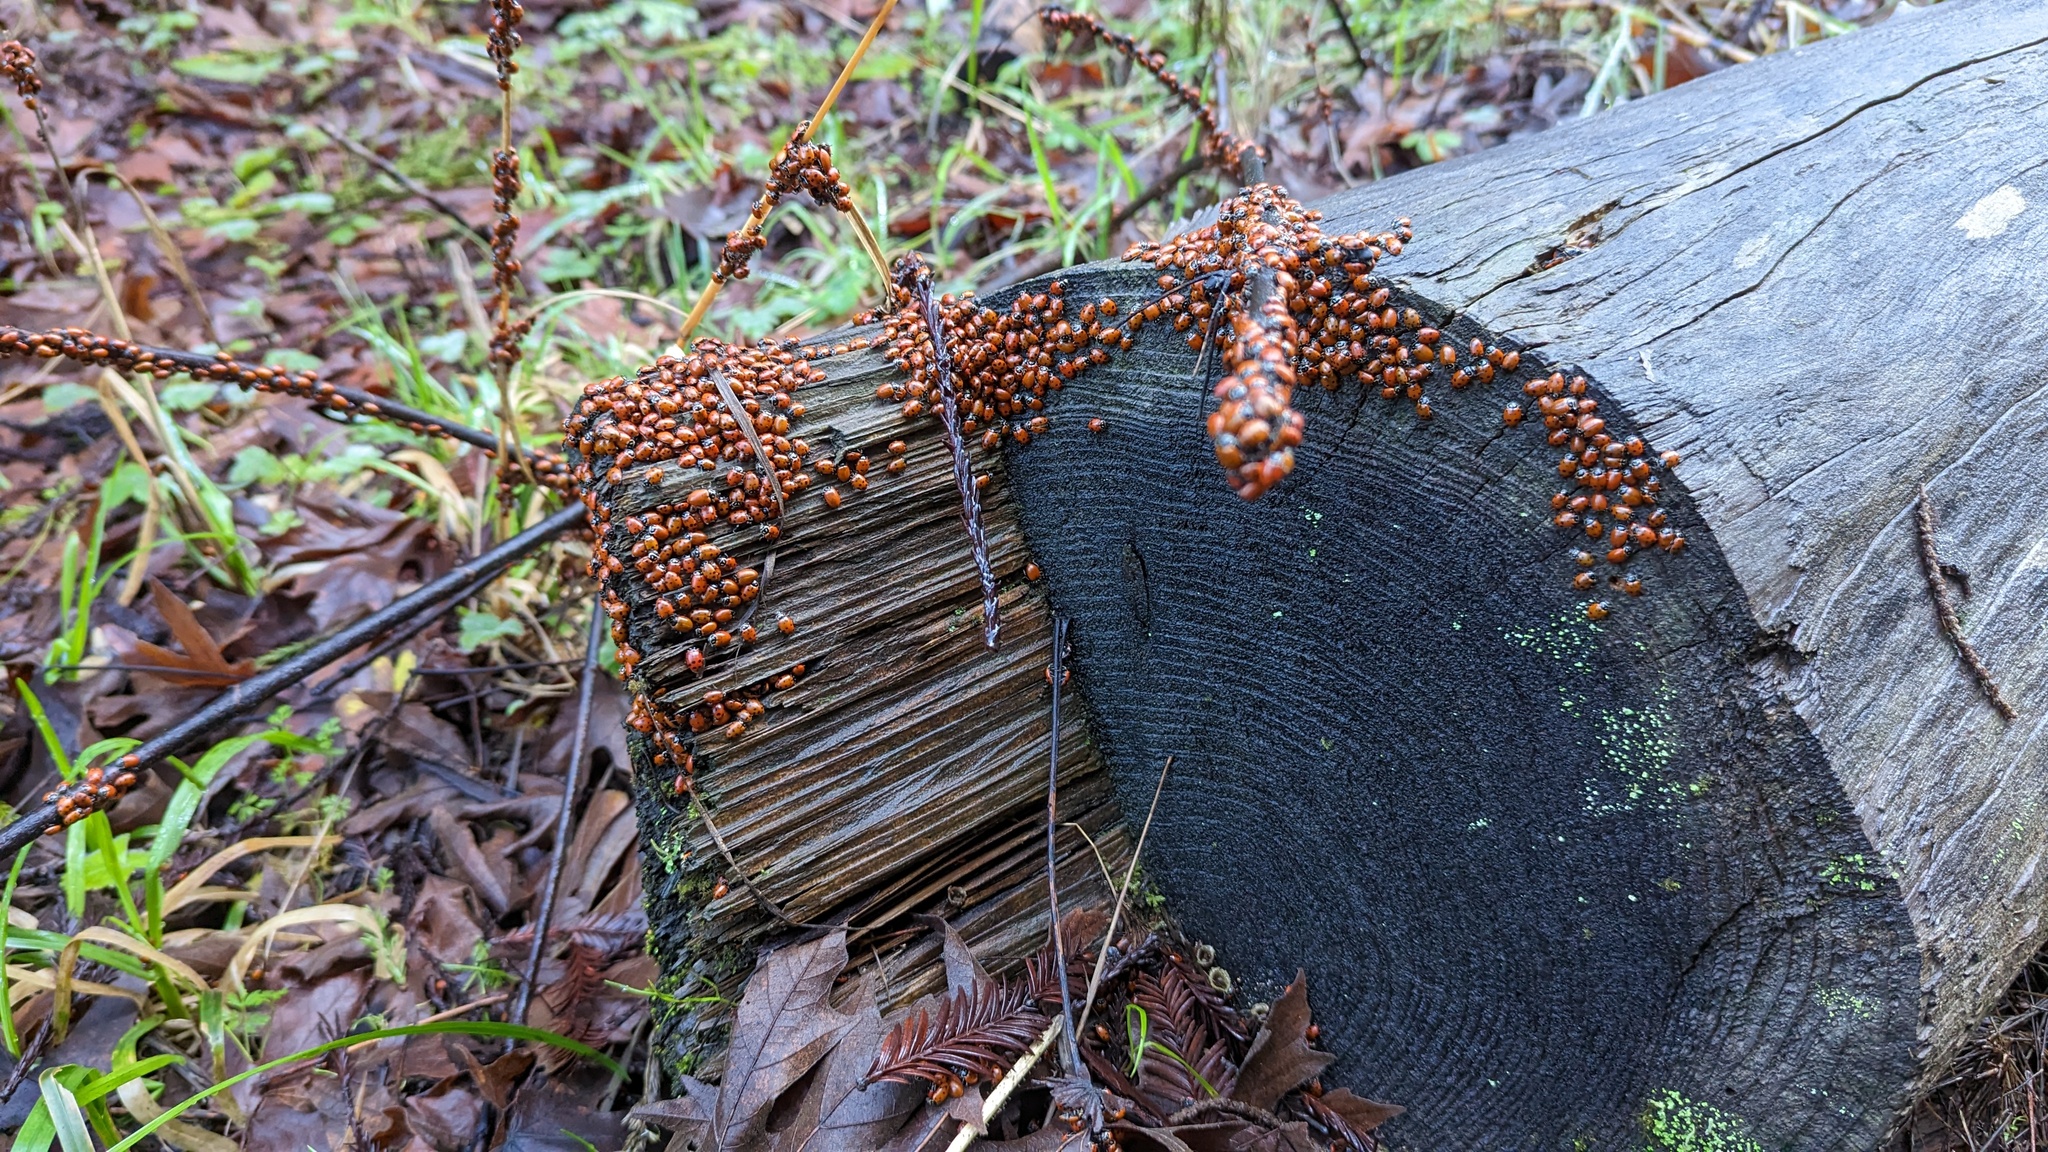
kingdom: Animalia
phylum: Arthropoda
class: Insecta
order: Coleoptera
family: Coccinellidae
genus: Hippodamia
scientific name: Hippodamia convergens
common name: Convergent lady beetle
